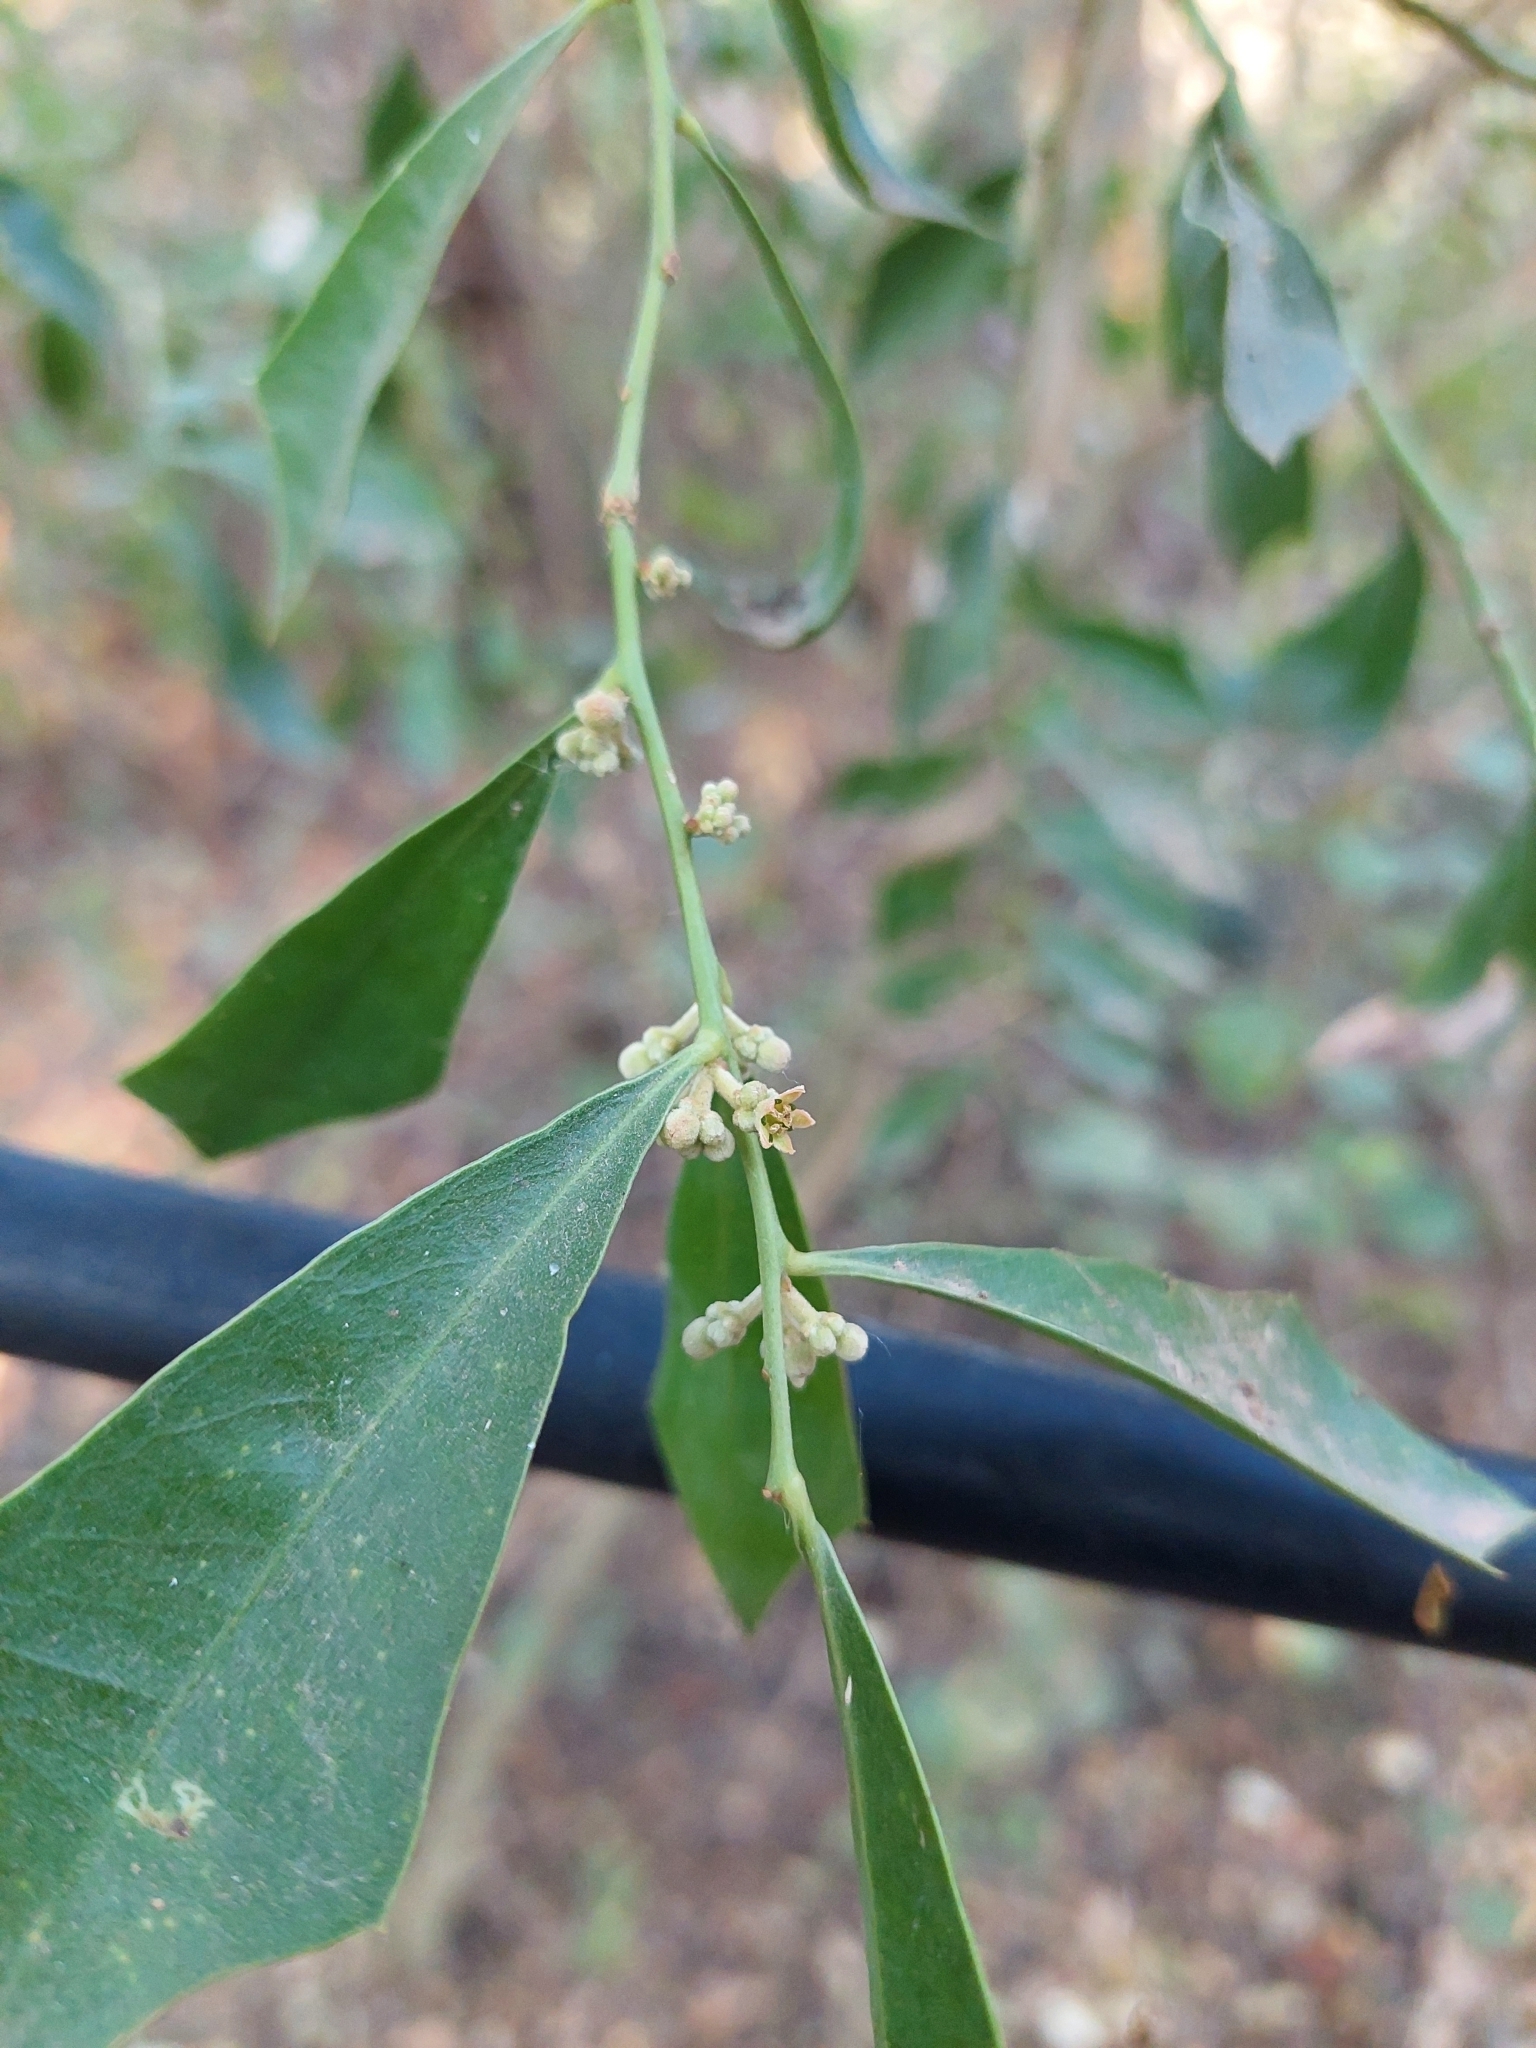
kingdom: Plantae
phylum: Tracheophyta
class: Magnoliopsida
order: Santalales
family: Cervantesiaceae
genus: Jodina
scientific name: Jodina rhombifolia
